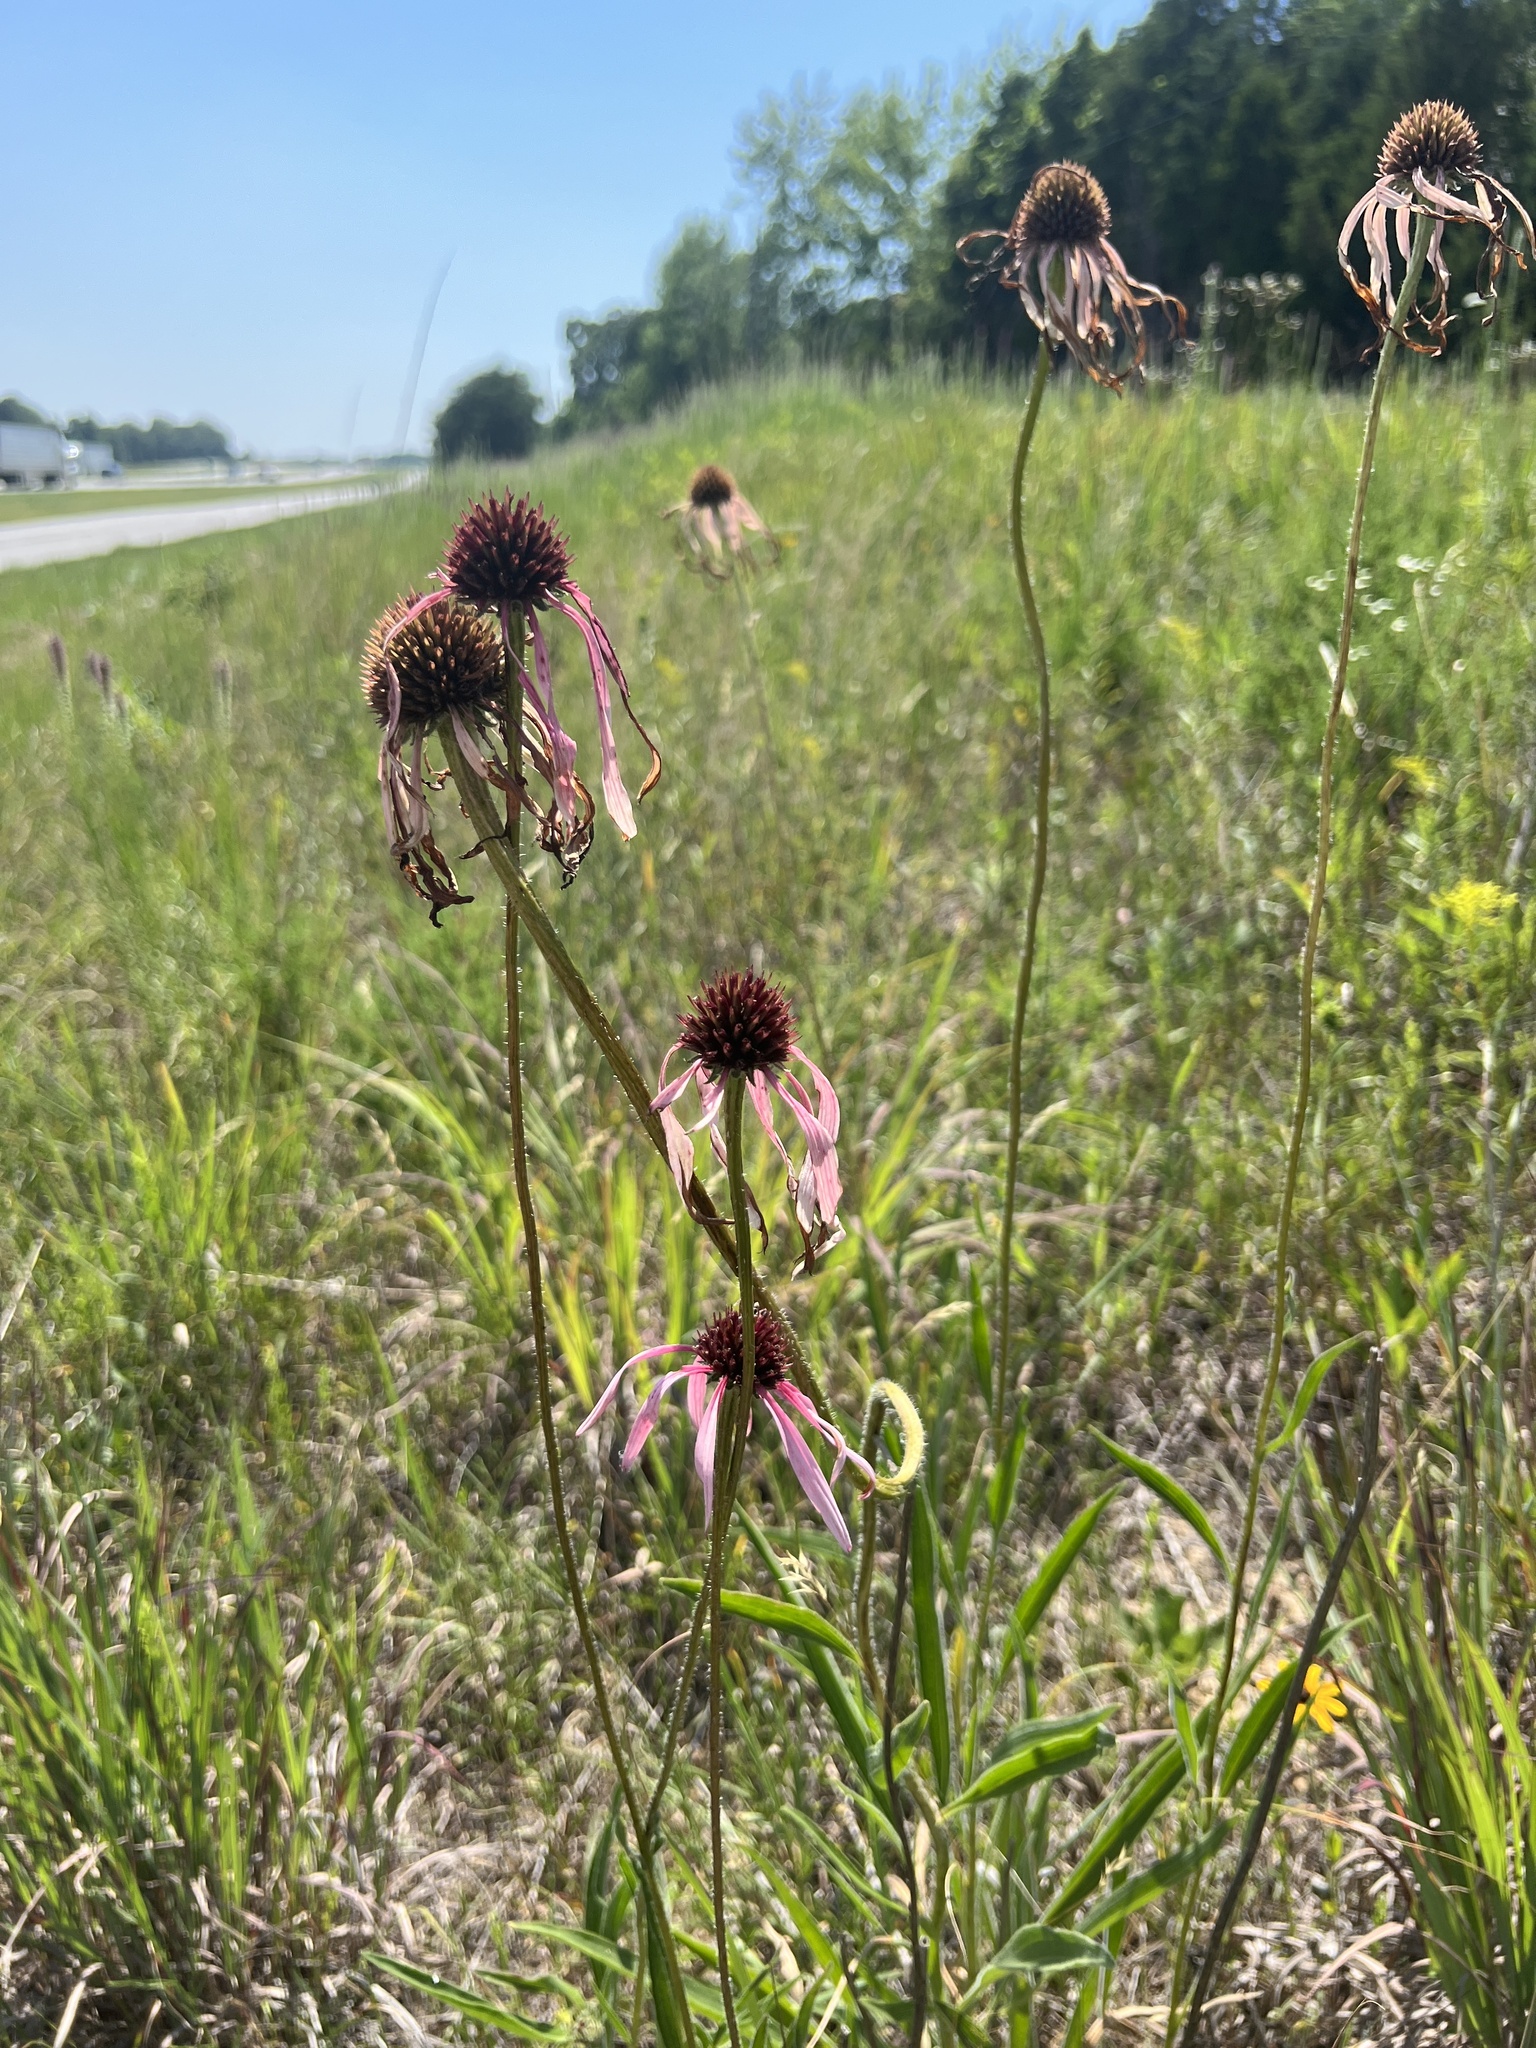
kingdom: Plantae
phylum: Tracheophyta
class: Magnoliopsida
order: Asterales
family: Asteraceae
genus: Echinacea
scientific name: Echinacea pallida
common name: Pale echinacea
